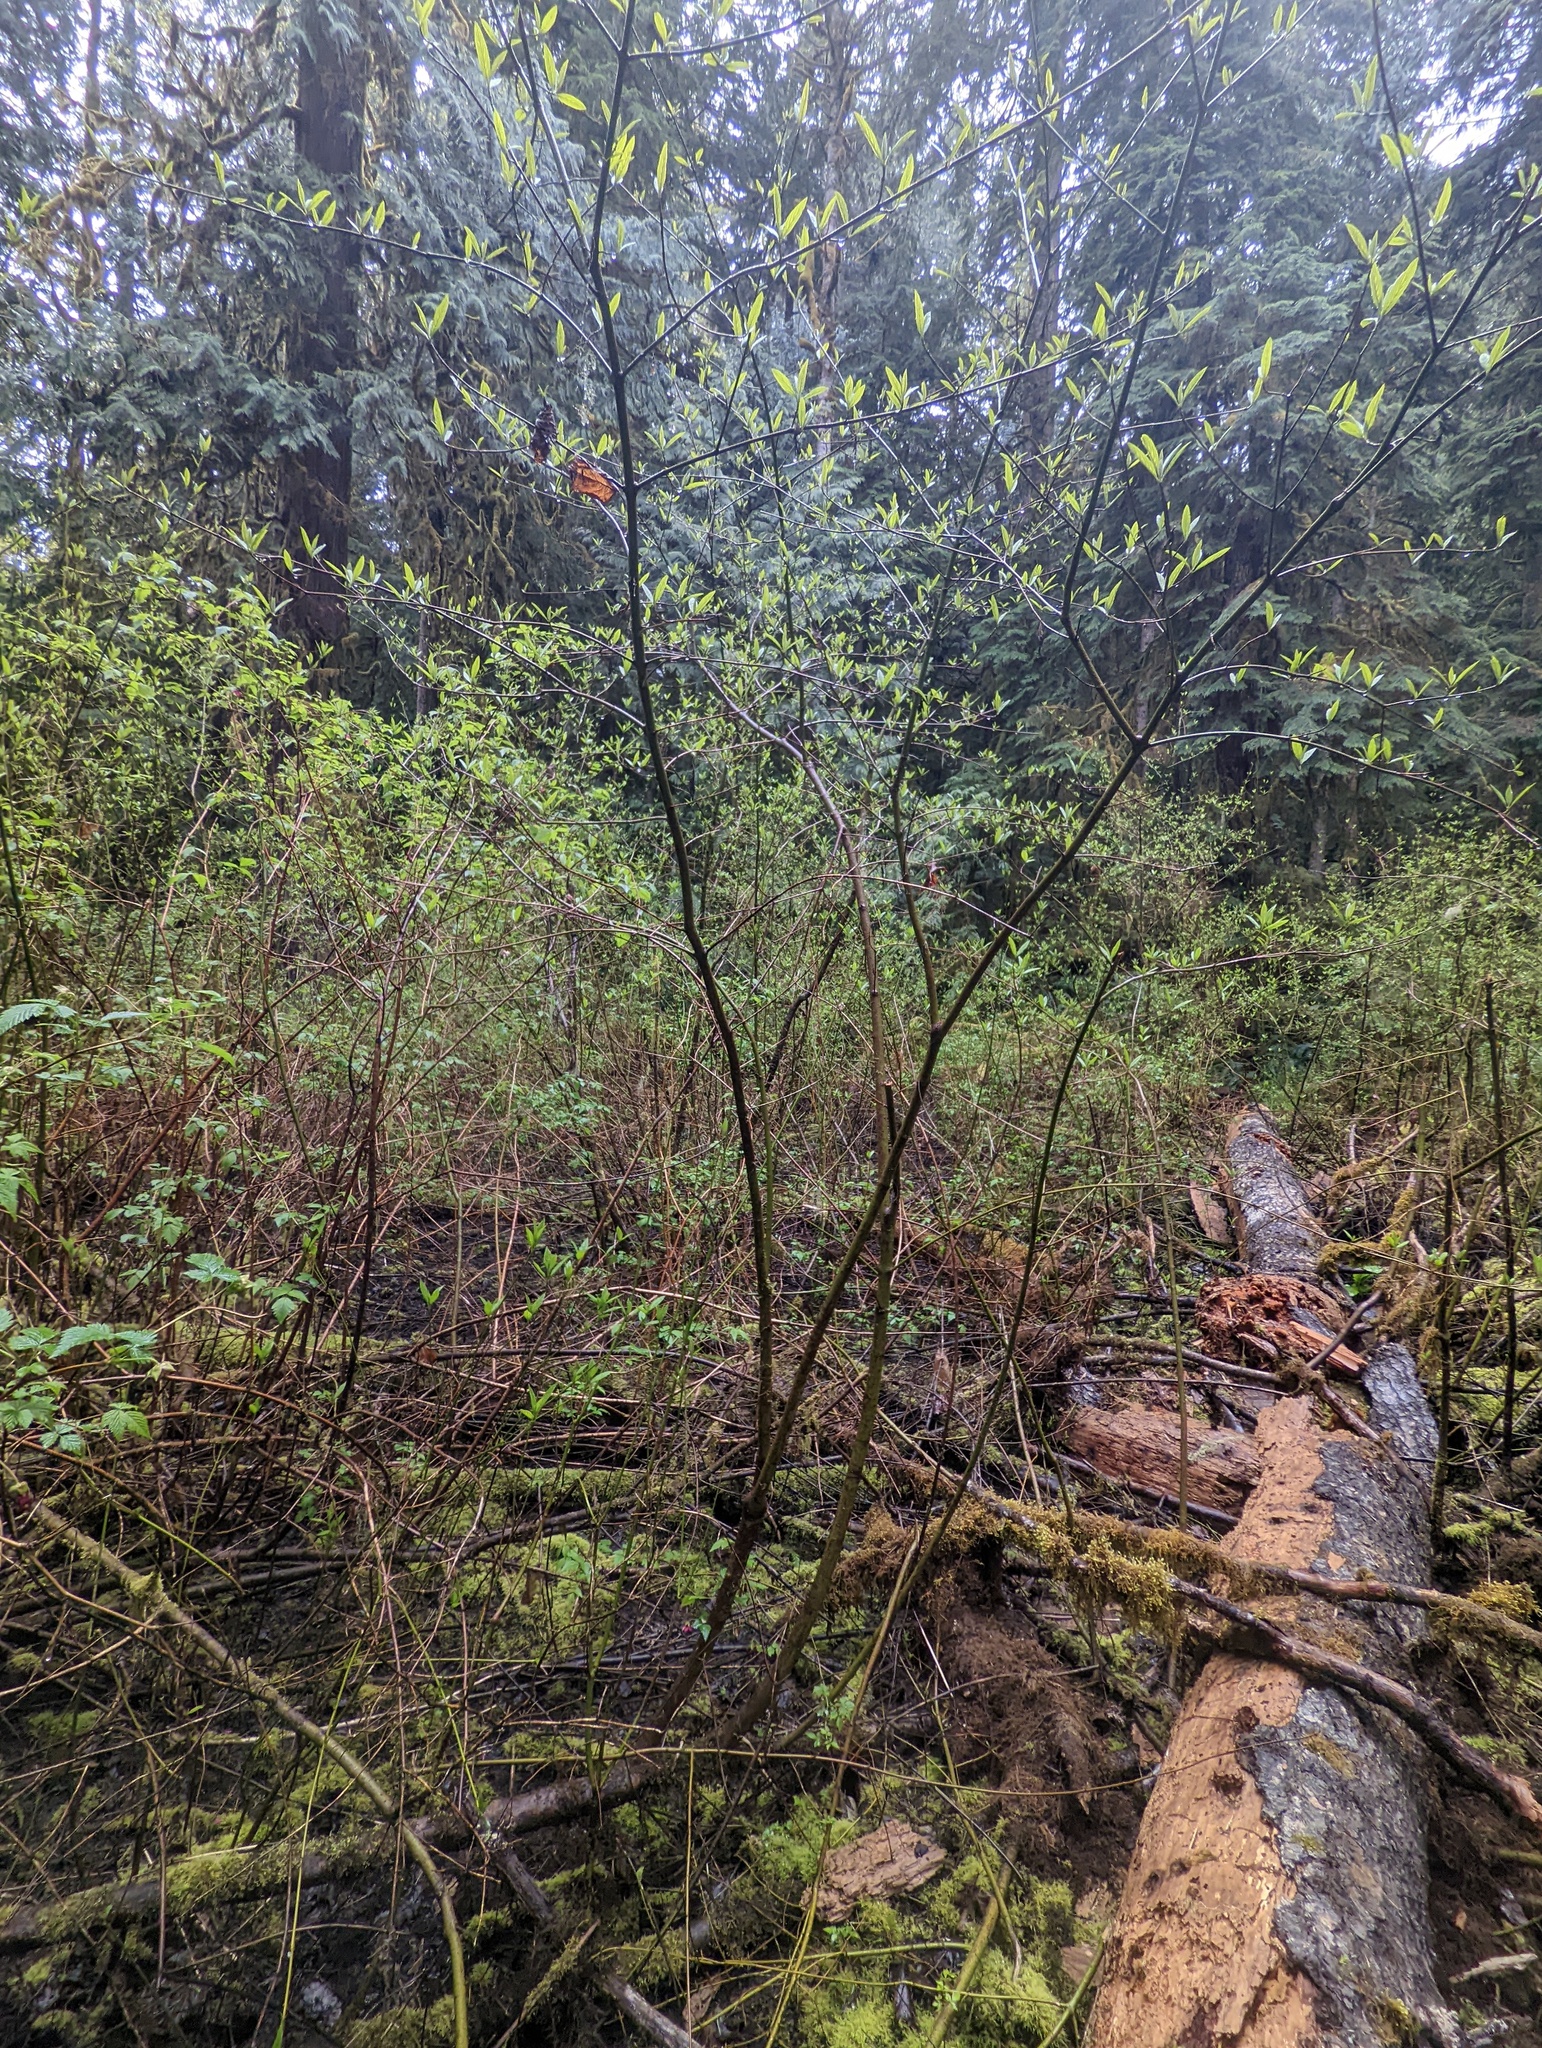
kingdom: Plantae
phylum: Tracheophyta
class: Magnoliopsida
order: Cornales
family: Cornaceae
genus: Cornus
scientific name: Cornus sericea
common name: Red-osier dogwood
